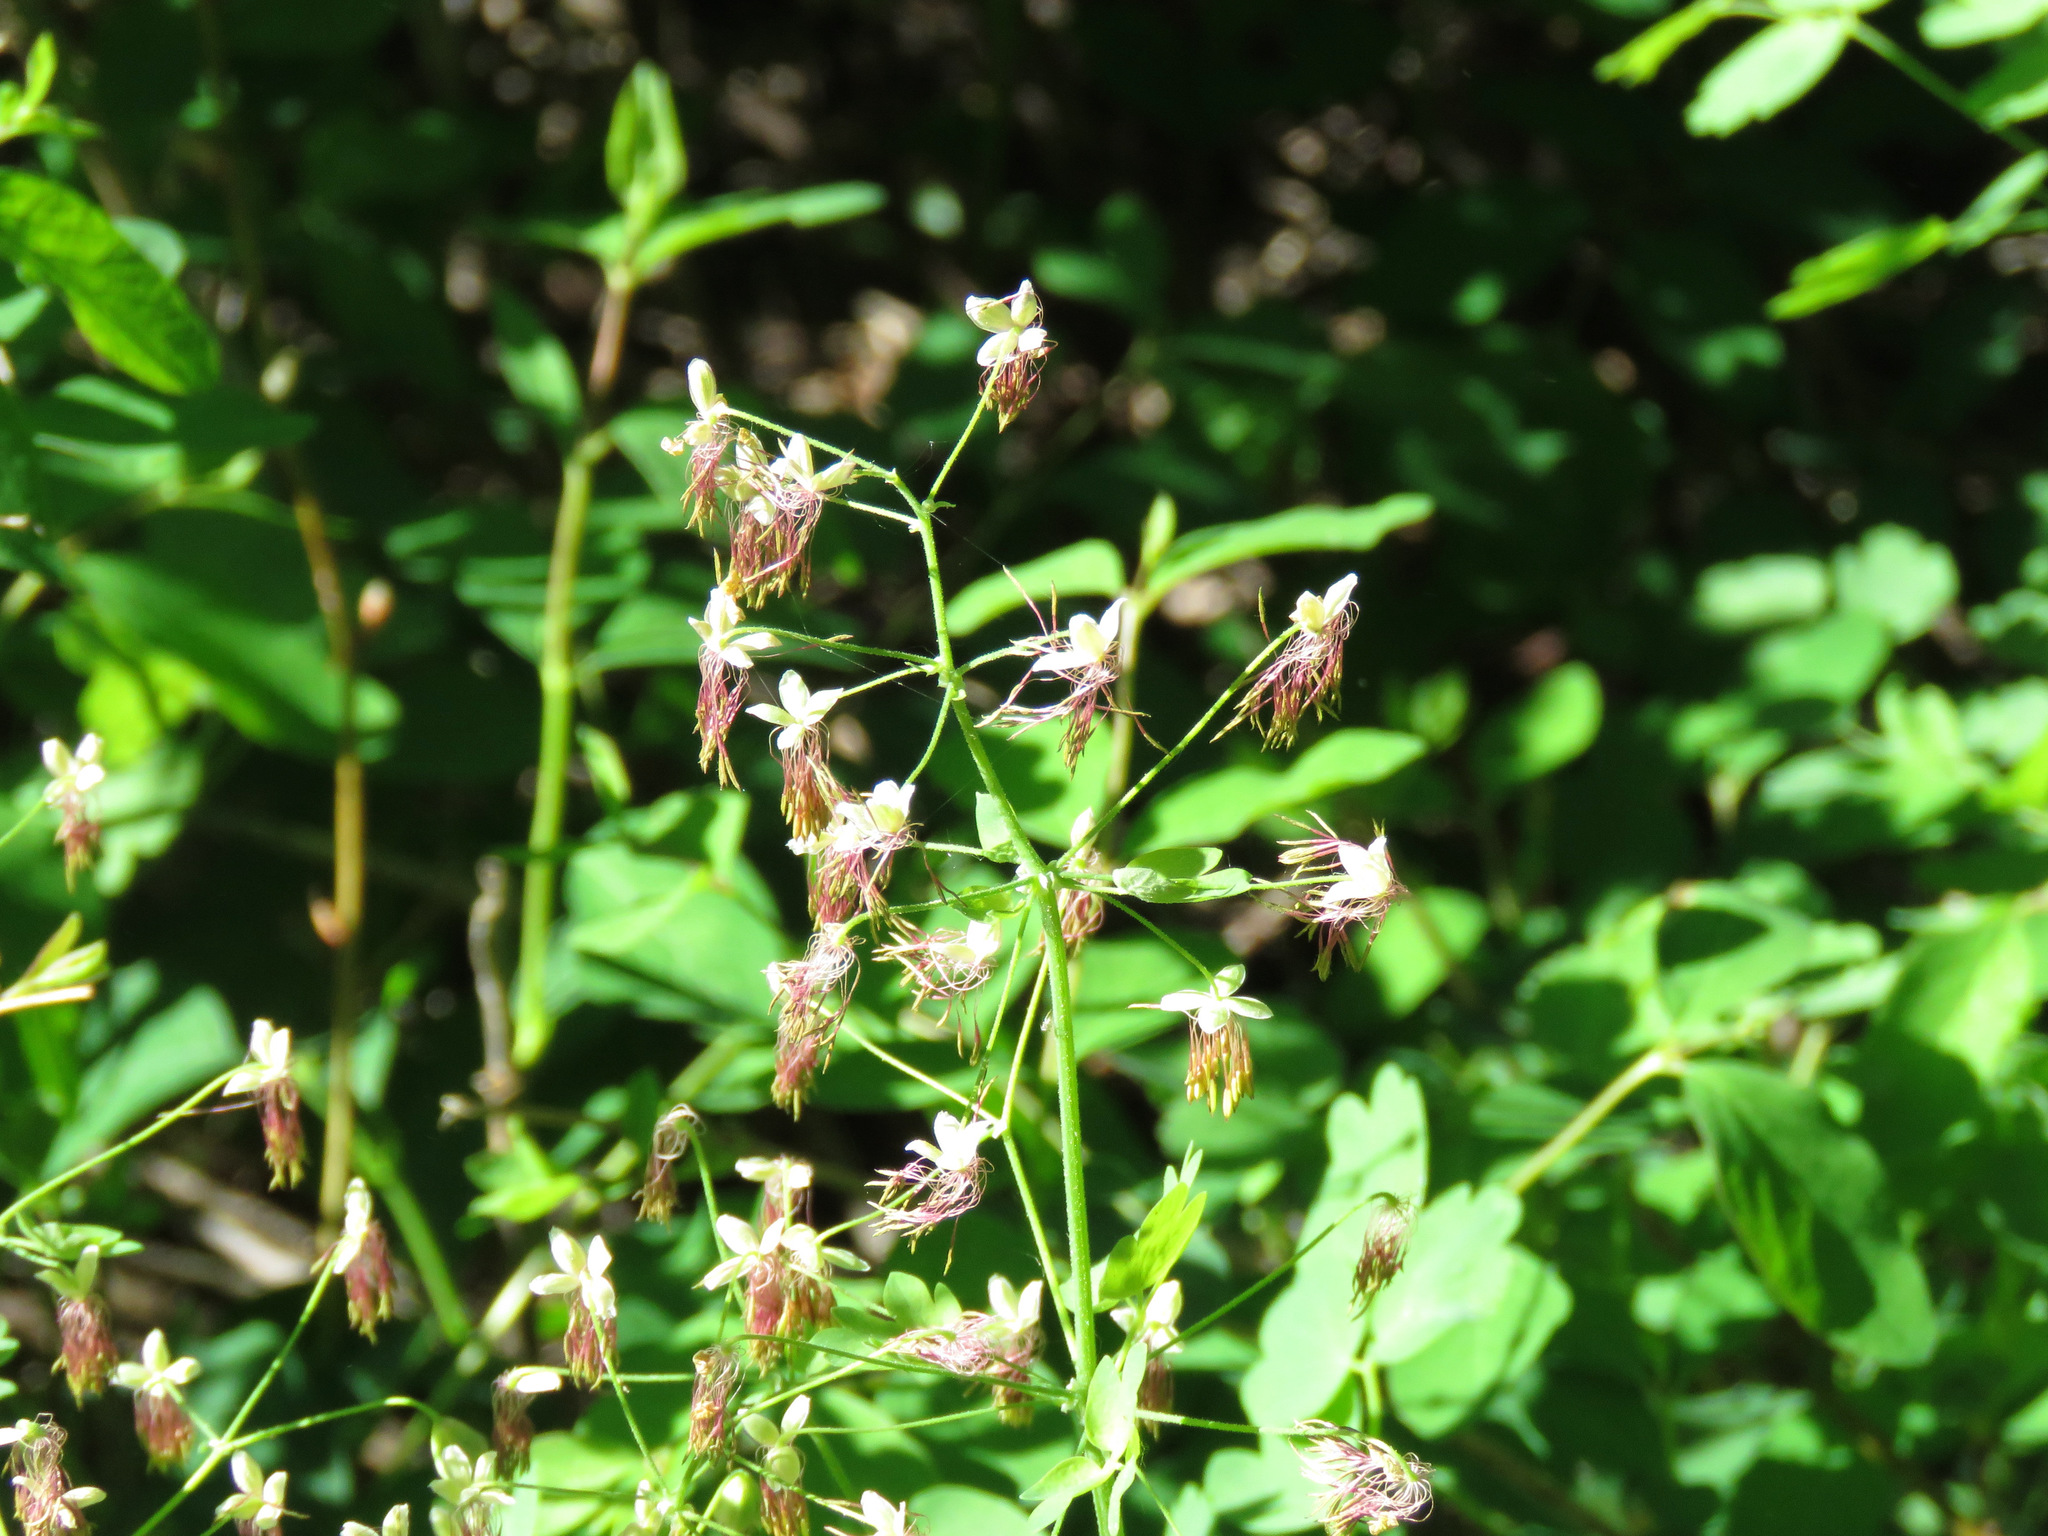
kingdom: Plantae
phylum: Tracheophyta
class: Magnoliopsida
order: Ranunculales
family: Ranunculaceae
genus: Thalictrum
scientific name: Thalictrum occidentale
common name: Western meadow-rue
